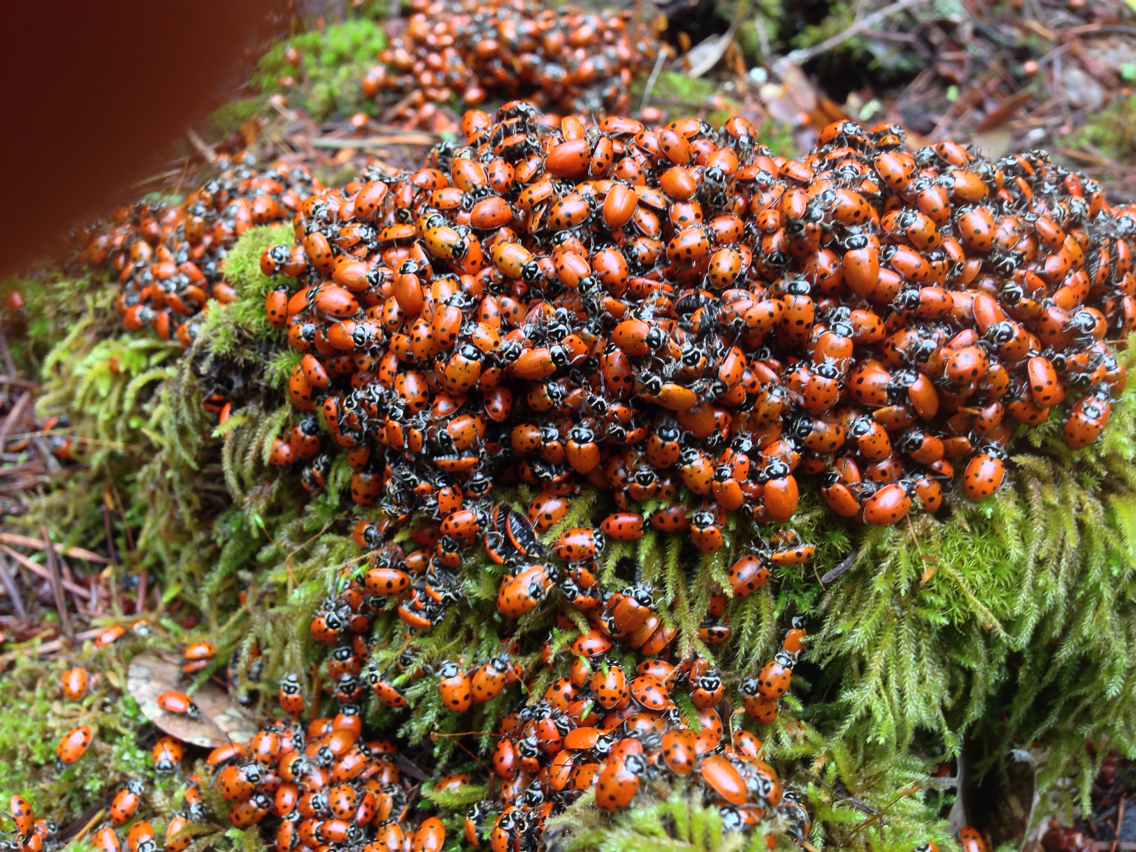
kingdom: Animalia
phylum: Arthropoda
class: Insecta
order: Coleoptera
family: Coccinellidae
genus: Hippodamia
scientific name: Hippodamia convergens
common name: Convergent lady beetle
